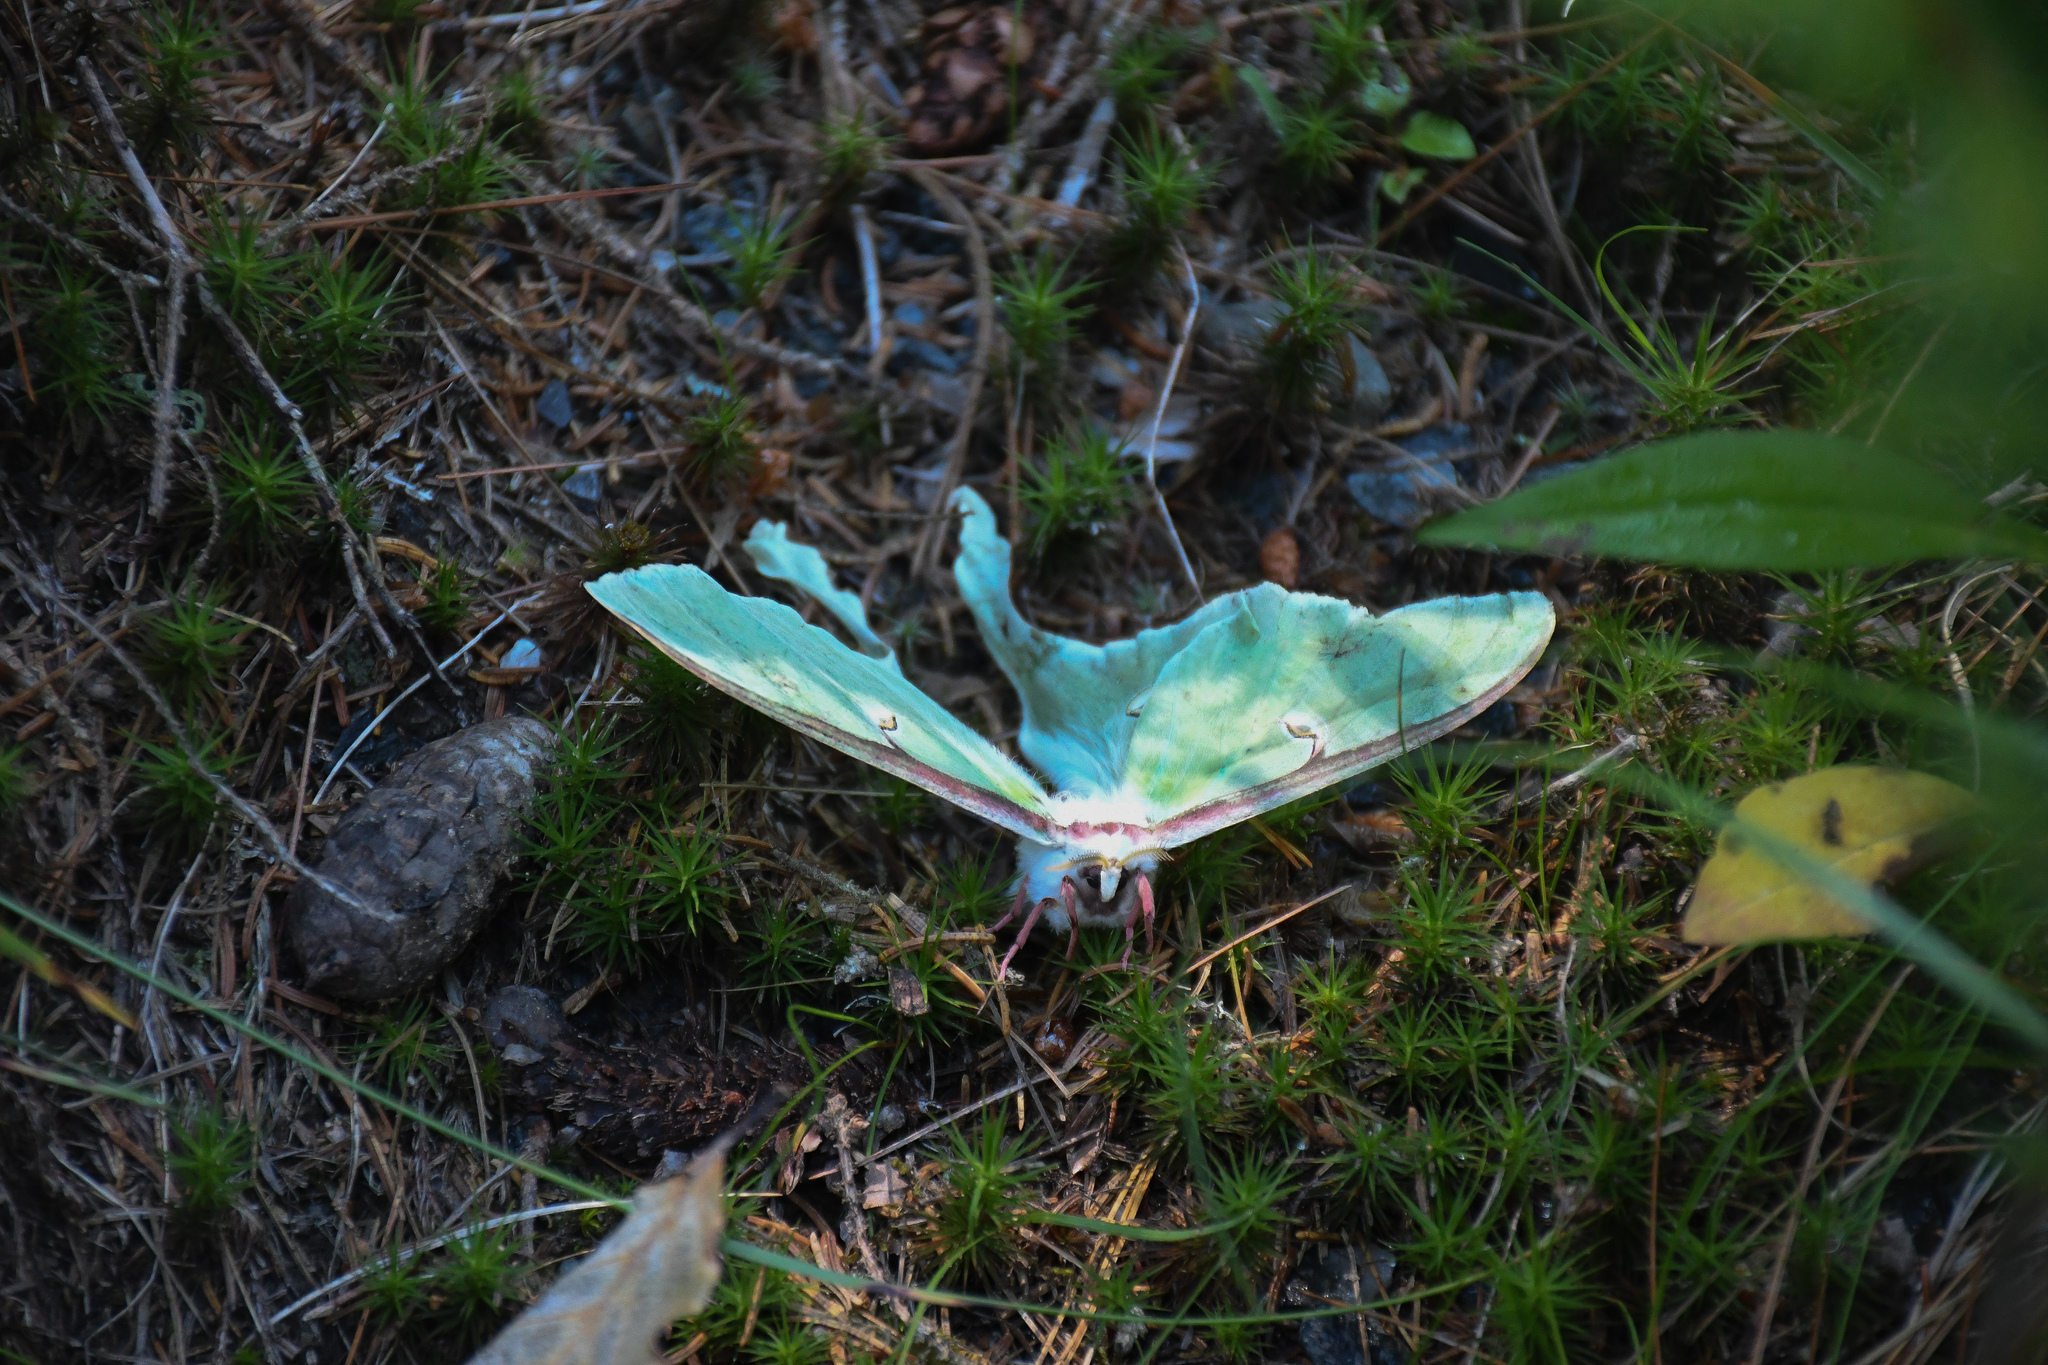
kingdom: Animalia
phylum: Arthropoda
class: Insecta
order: Lepidoptera
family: Saturniidae
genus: Actias
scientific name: Actias luna
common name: Luna moth
